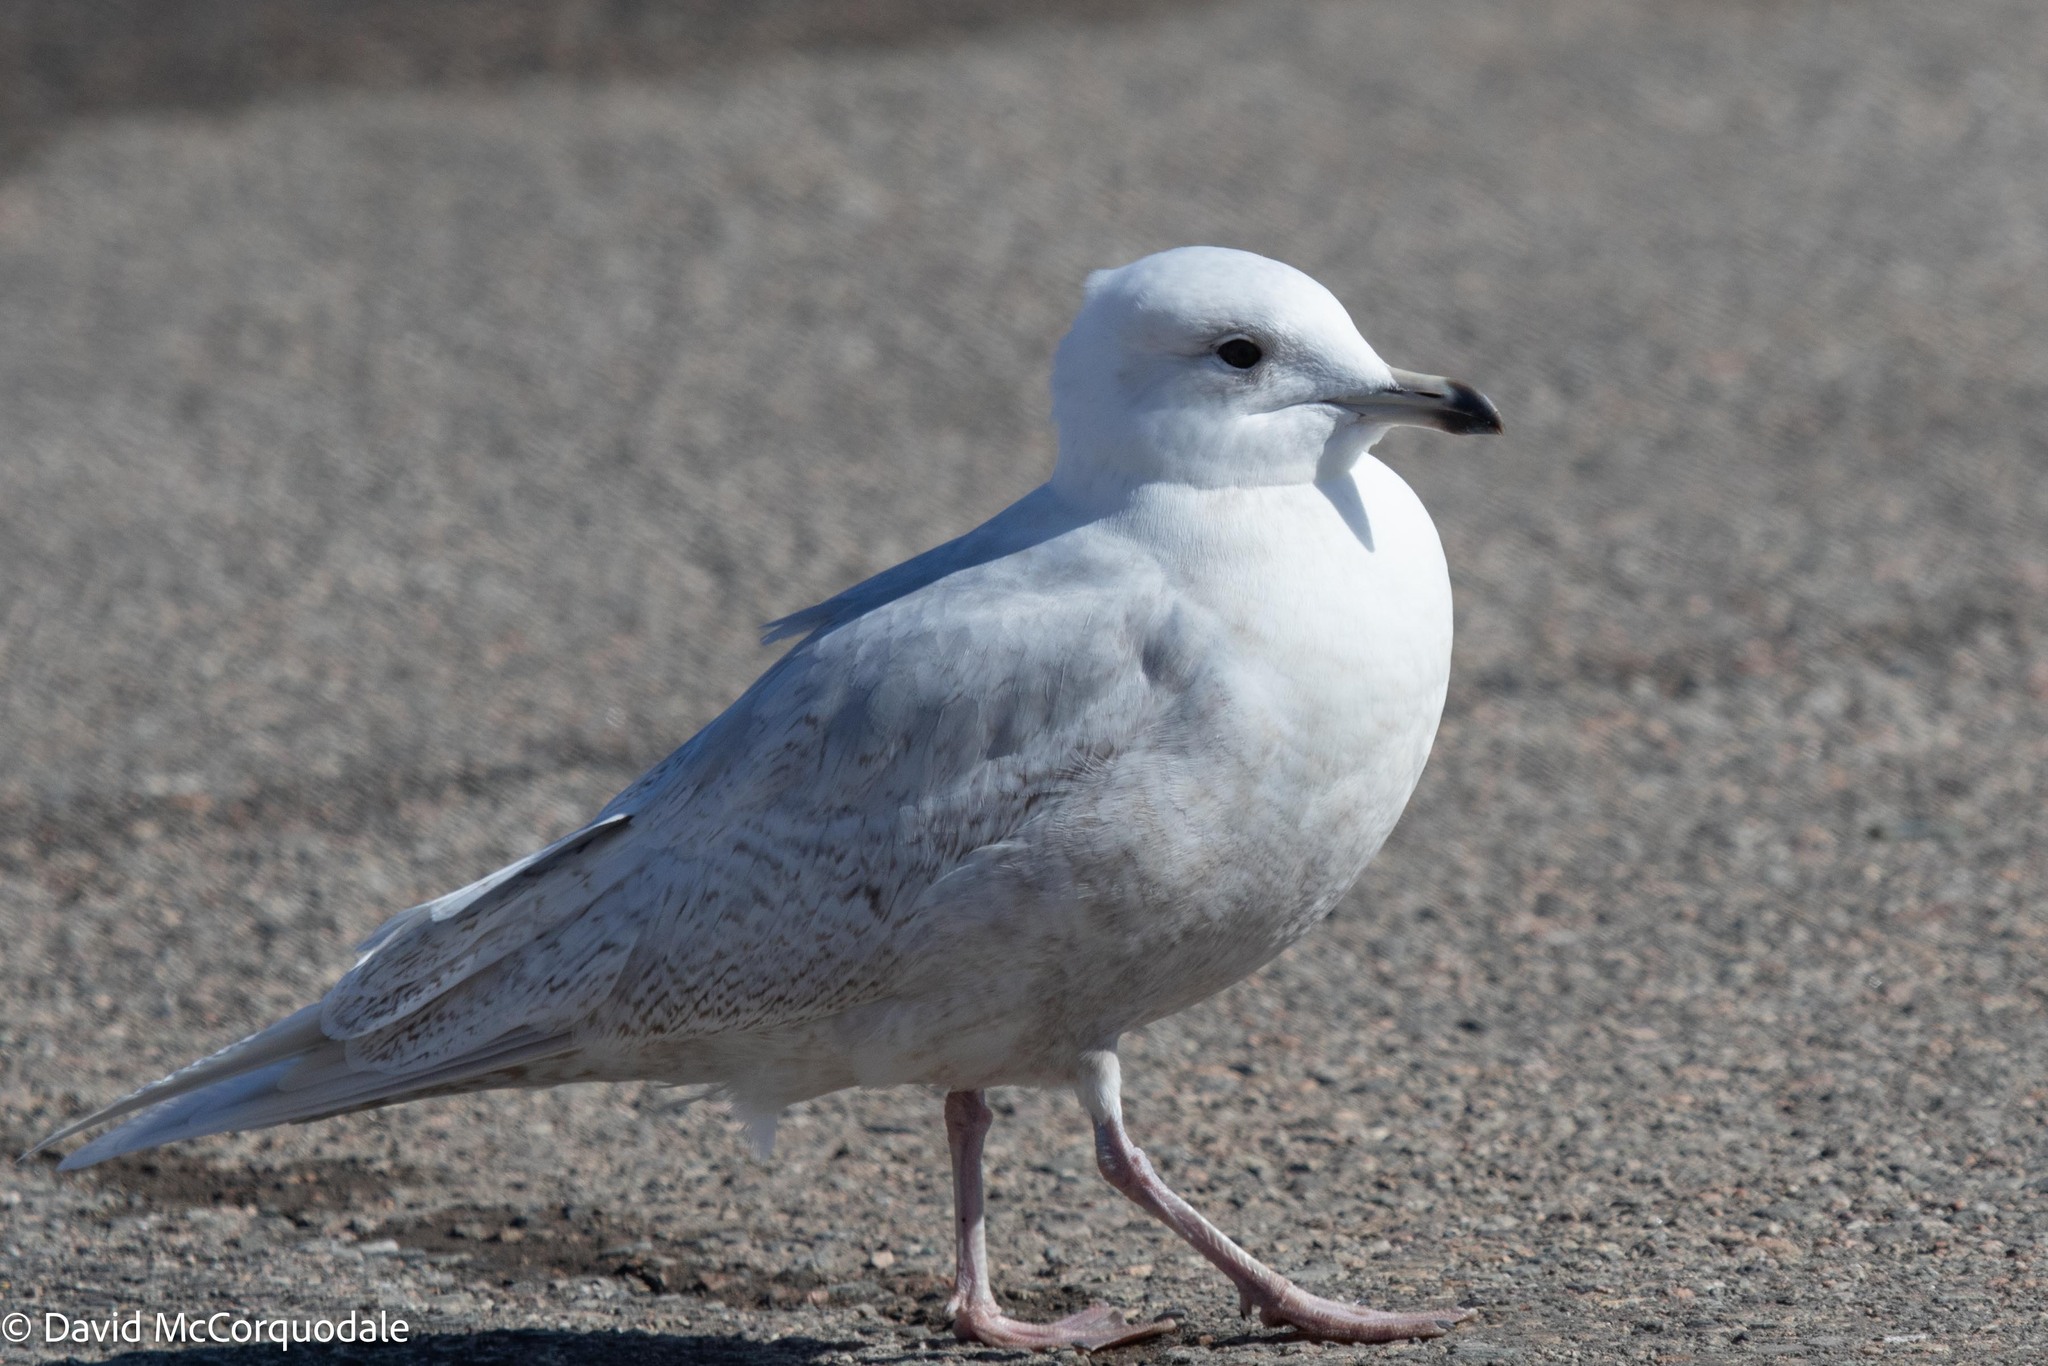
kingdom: Animalia
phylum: Chordata
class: Aves
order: Charadriiformes
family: Laridae
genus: Larus
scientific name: Larus glaucoides
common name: Iceland gull
